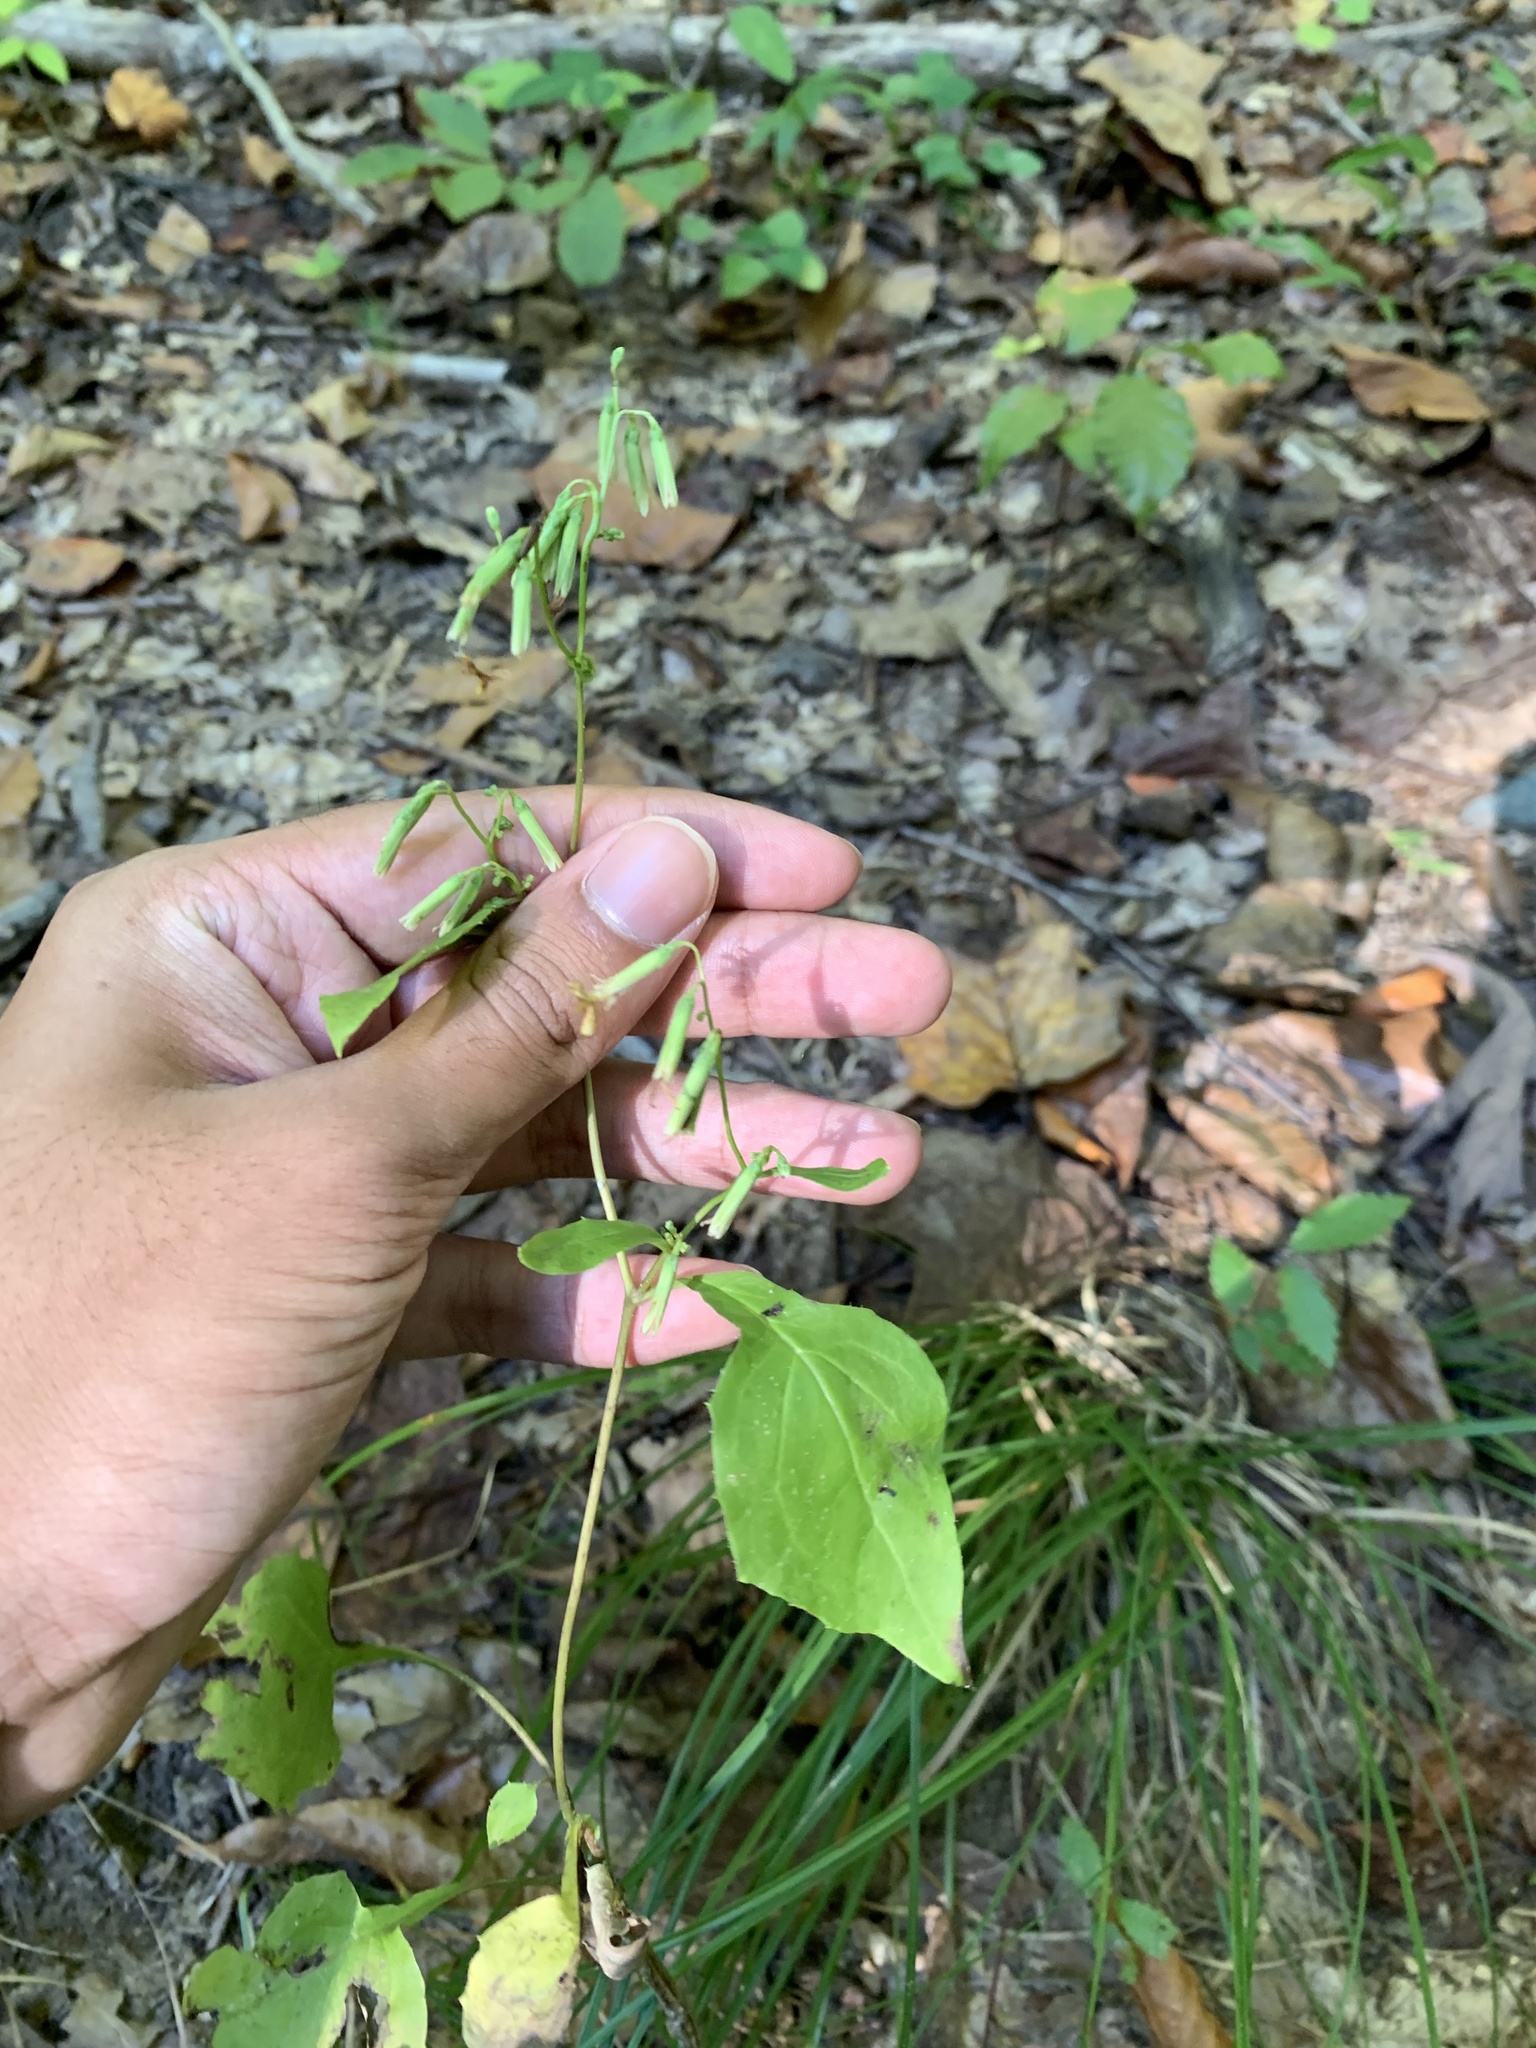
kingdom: Plantae
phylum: Tracheophyta
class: Magnoliopsida
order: Asterales
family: Asteraceae
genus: Nabalus
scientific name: Nabalus altissima
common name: Tall rattlesnakeroot
